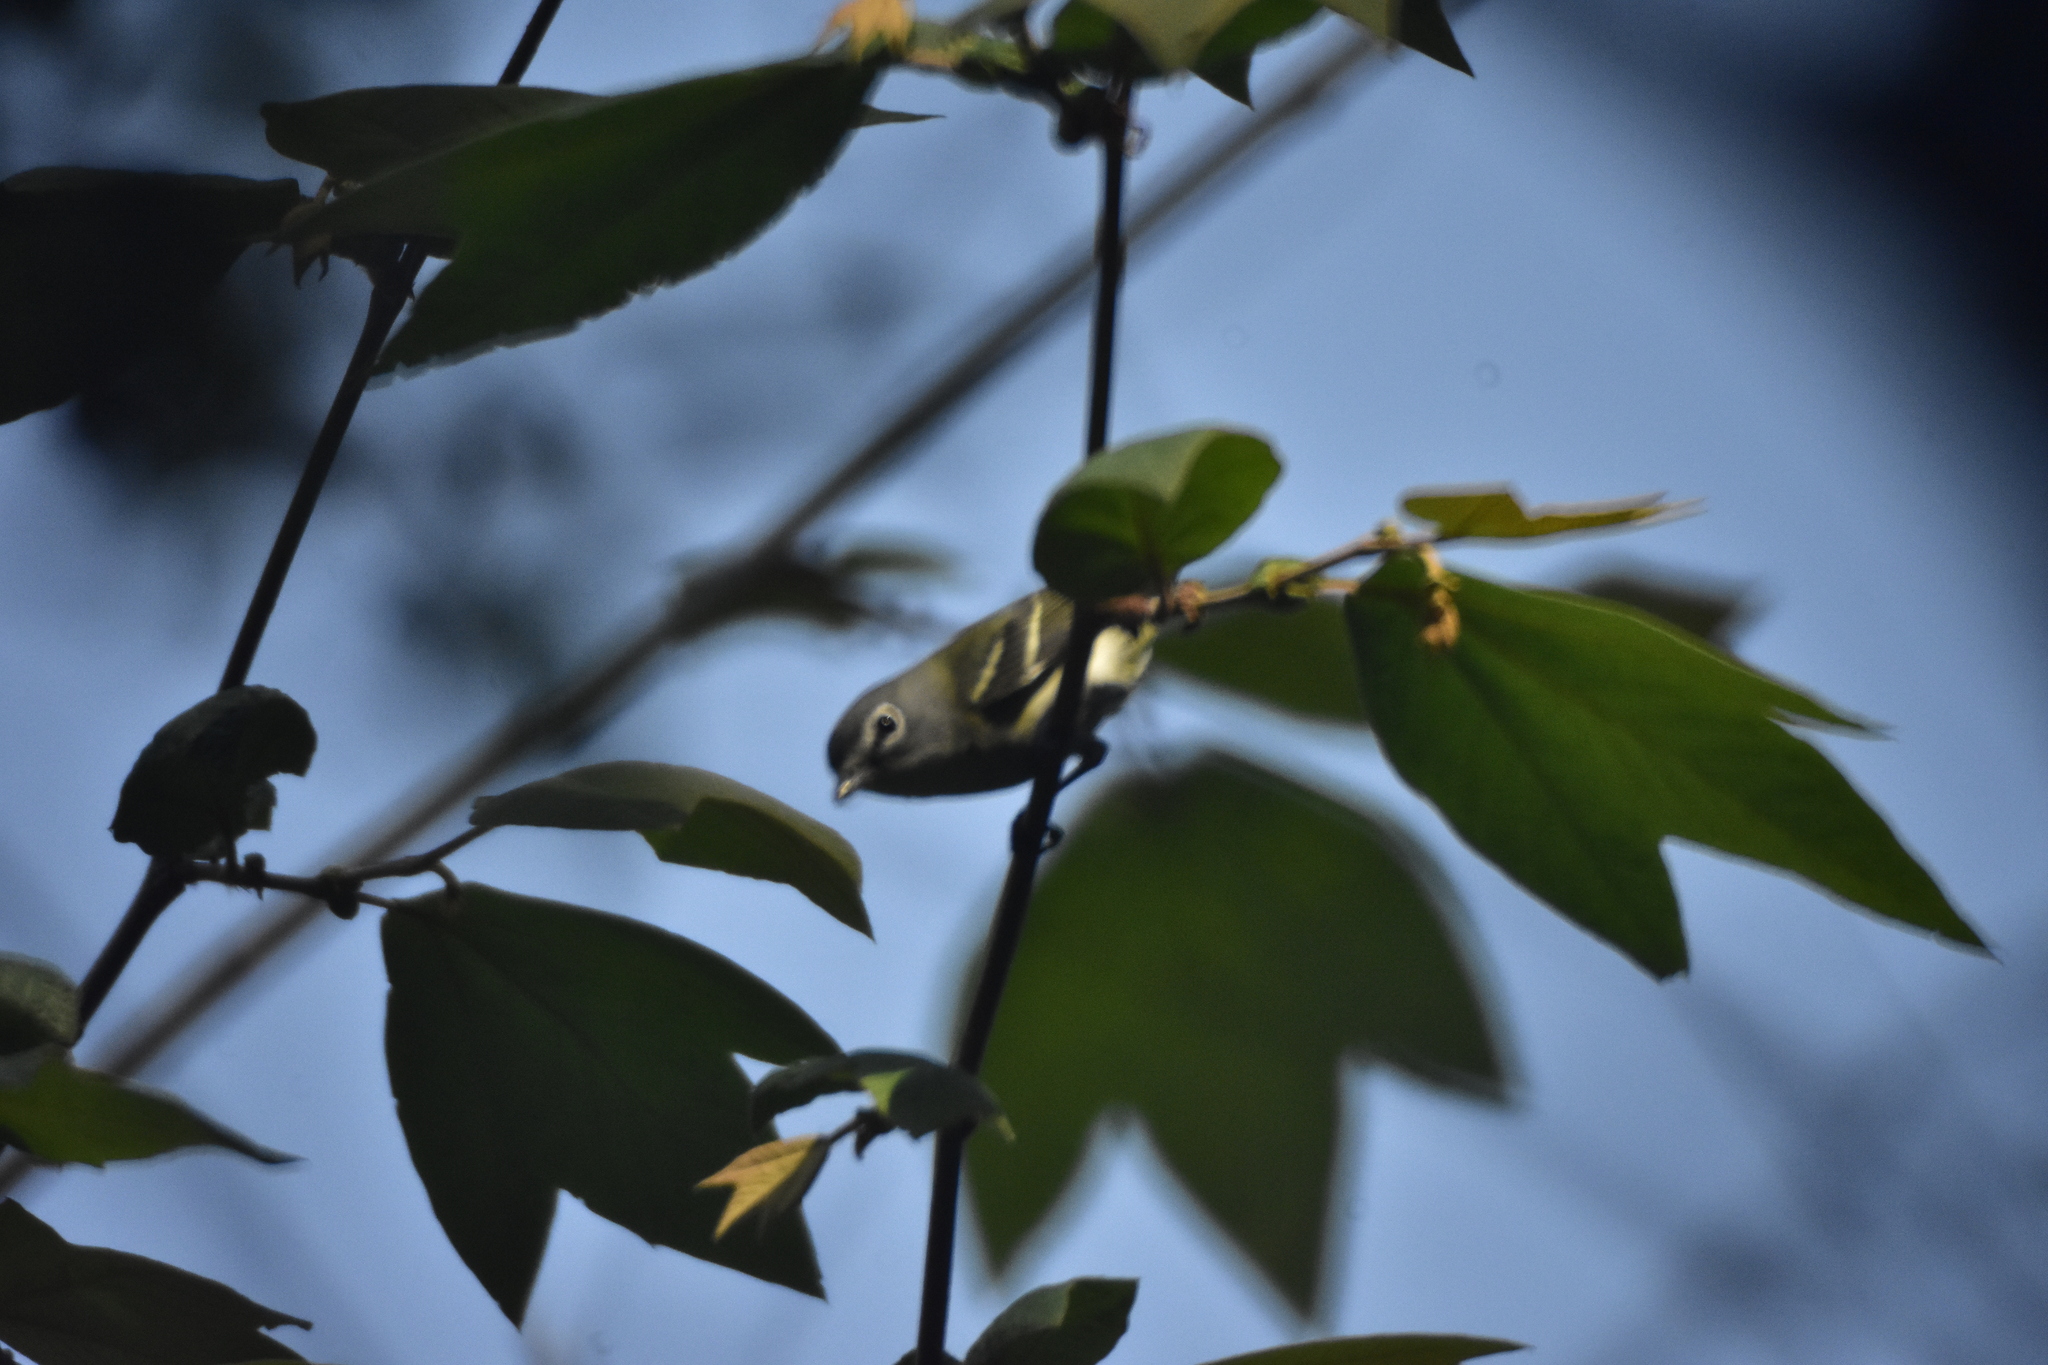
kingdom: Animalia
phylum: Chordata
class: Aves
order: Passeriformes
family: Vireonidae
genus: Vireo
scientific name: Vireo solitarius
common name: Blue-headed vireo
